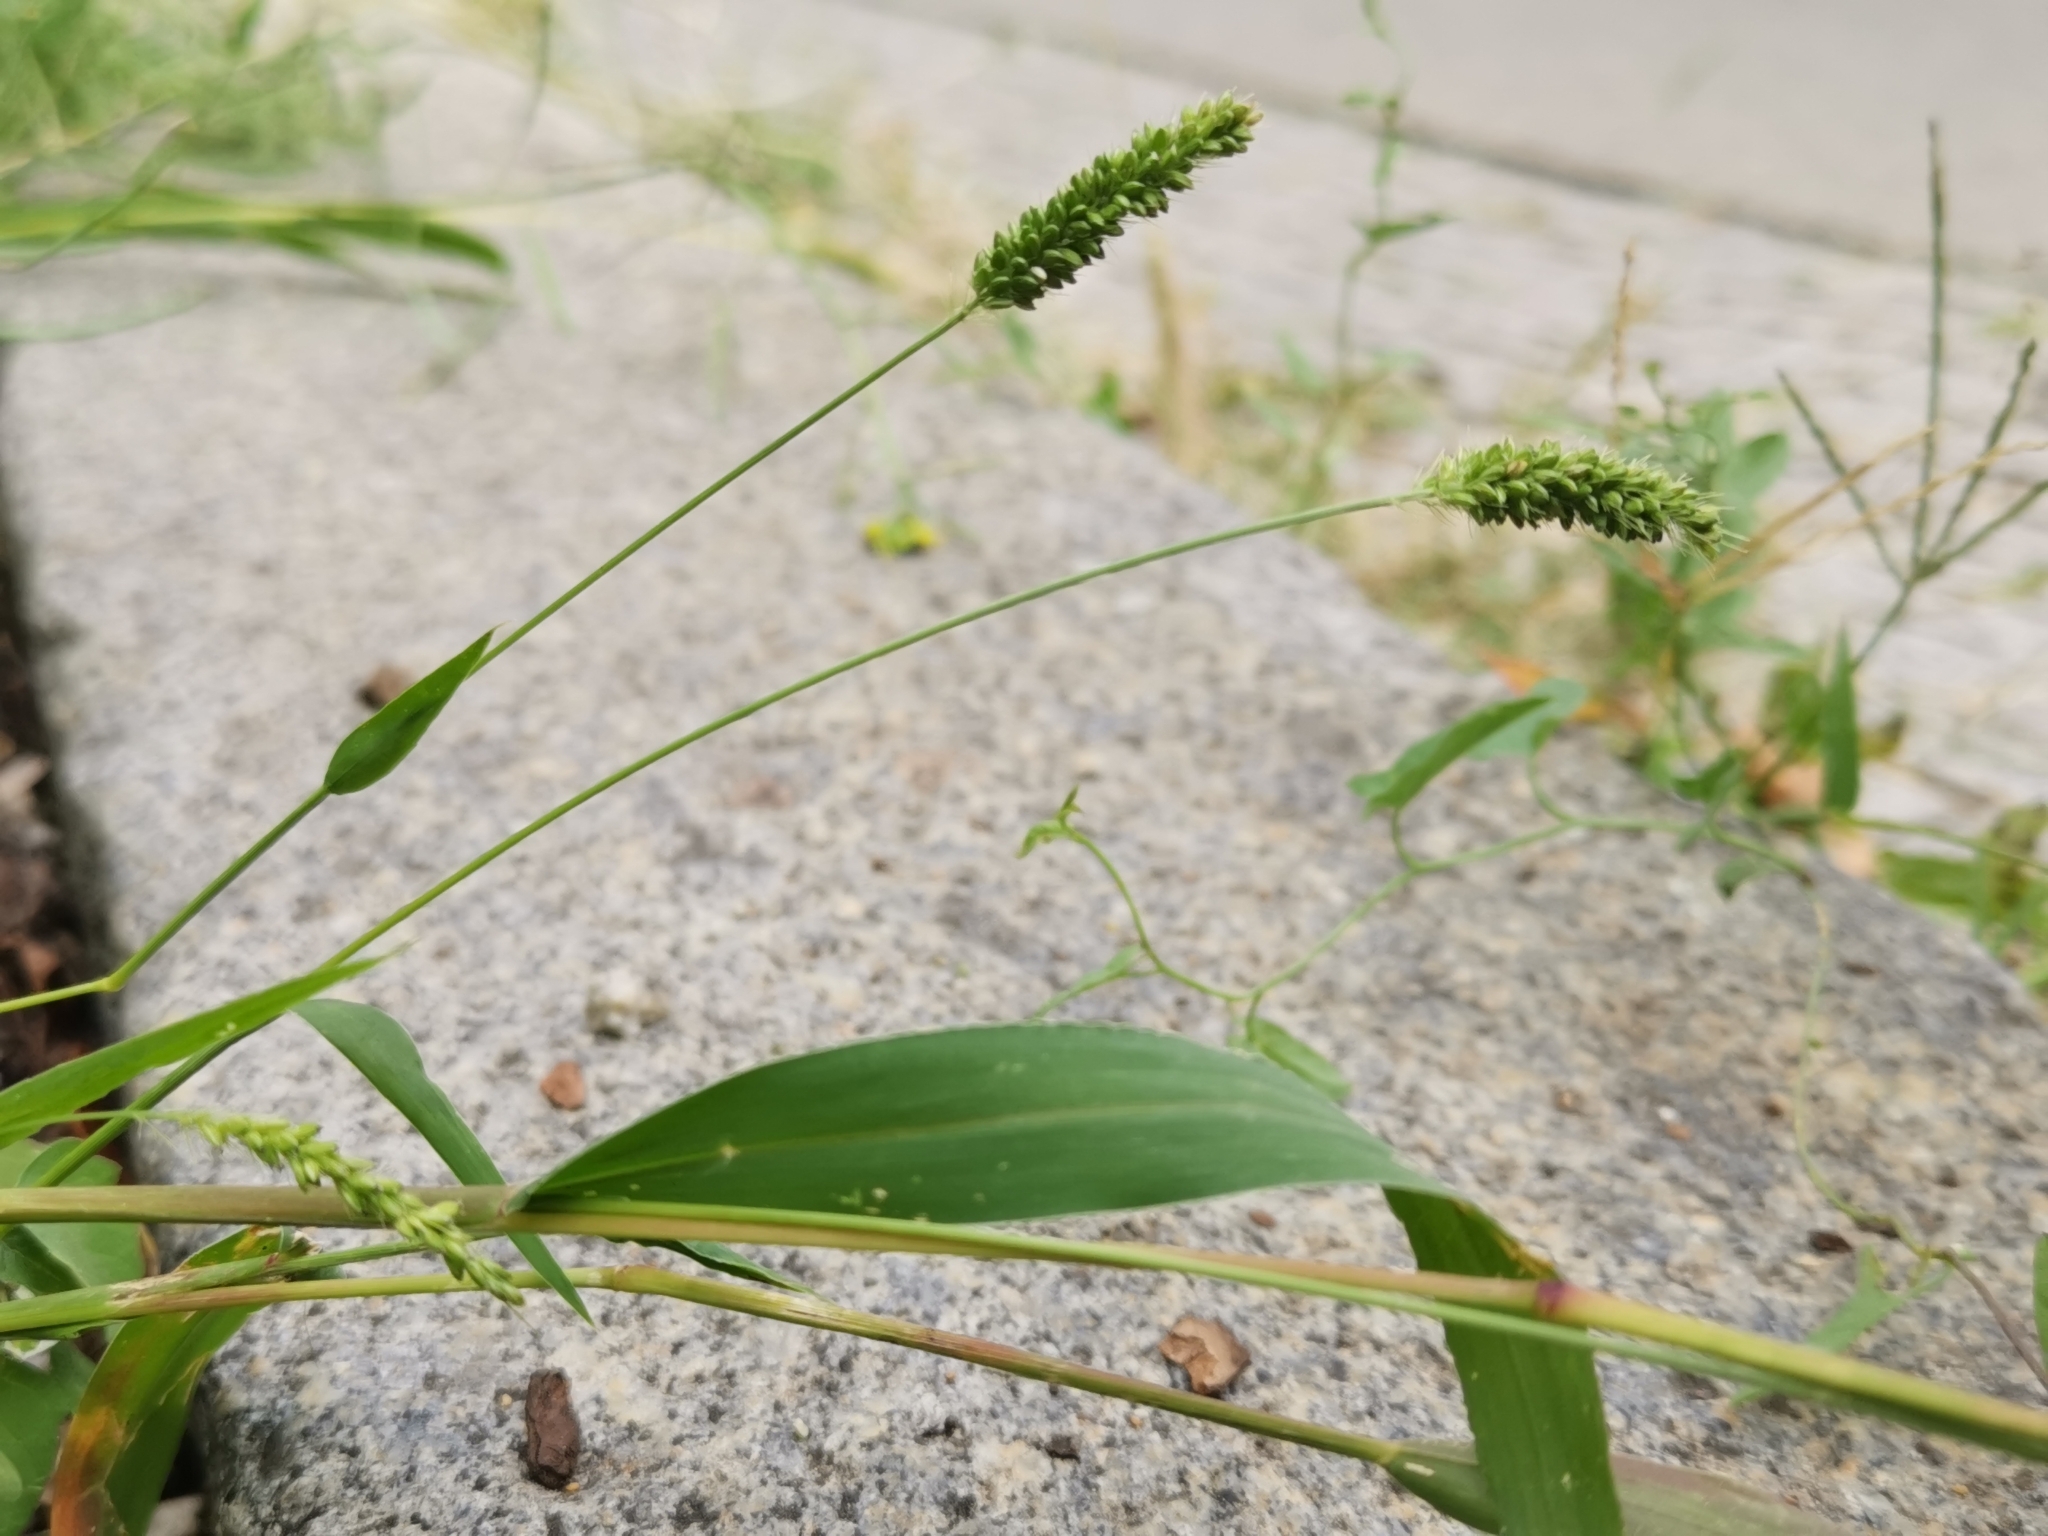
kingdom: Plantae
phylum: Tracheophyta
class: Liliopsida
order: Poales
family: Poaceae
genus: Setaria
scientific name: Setaria viridis
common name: Green bristlegrass
